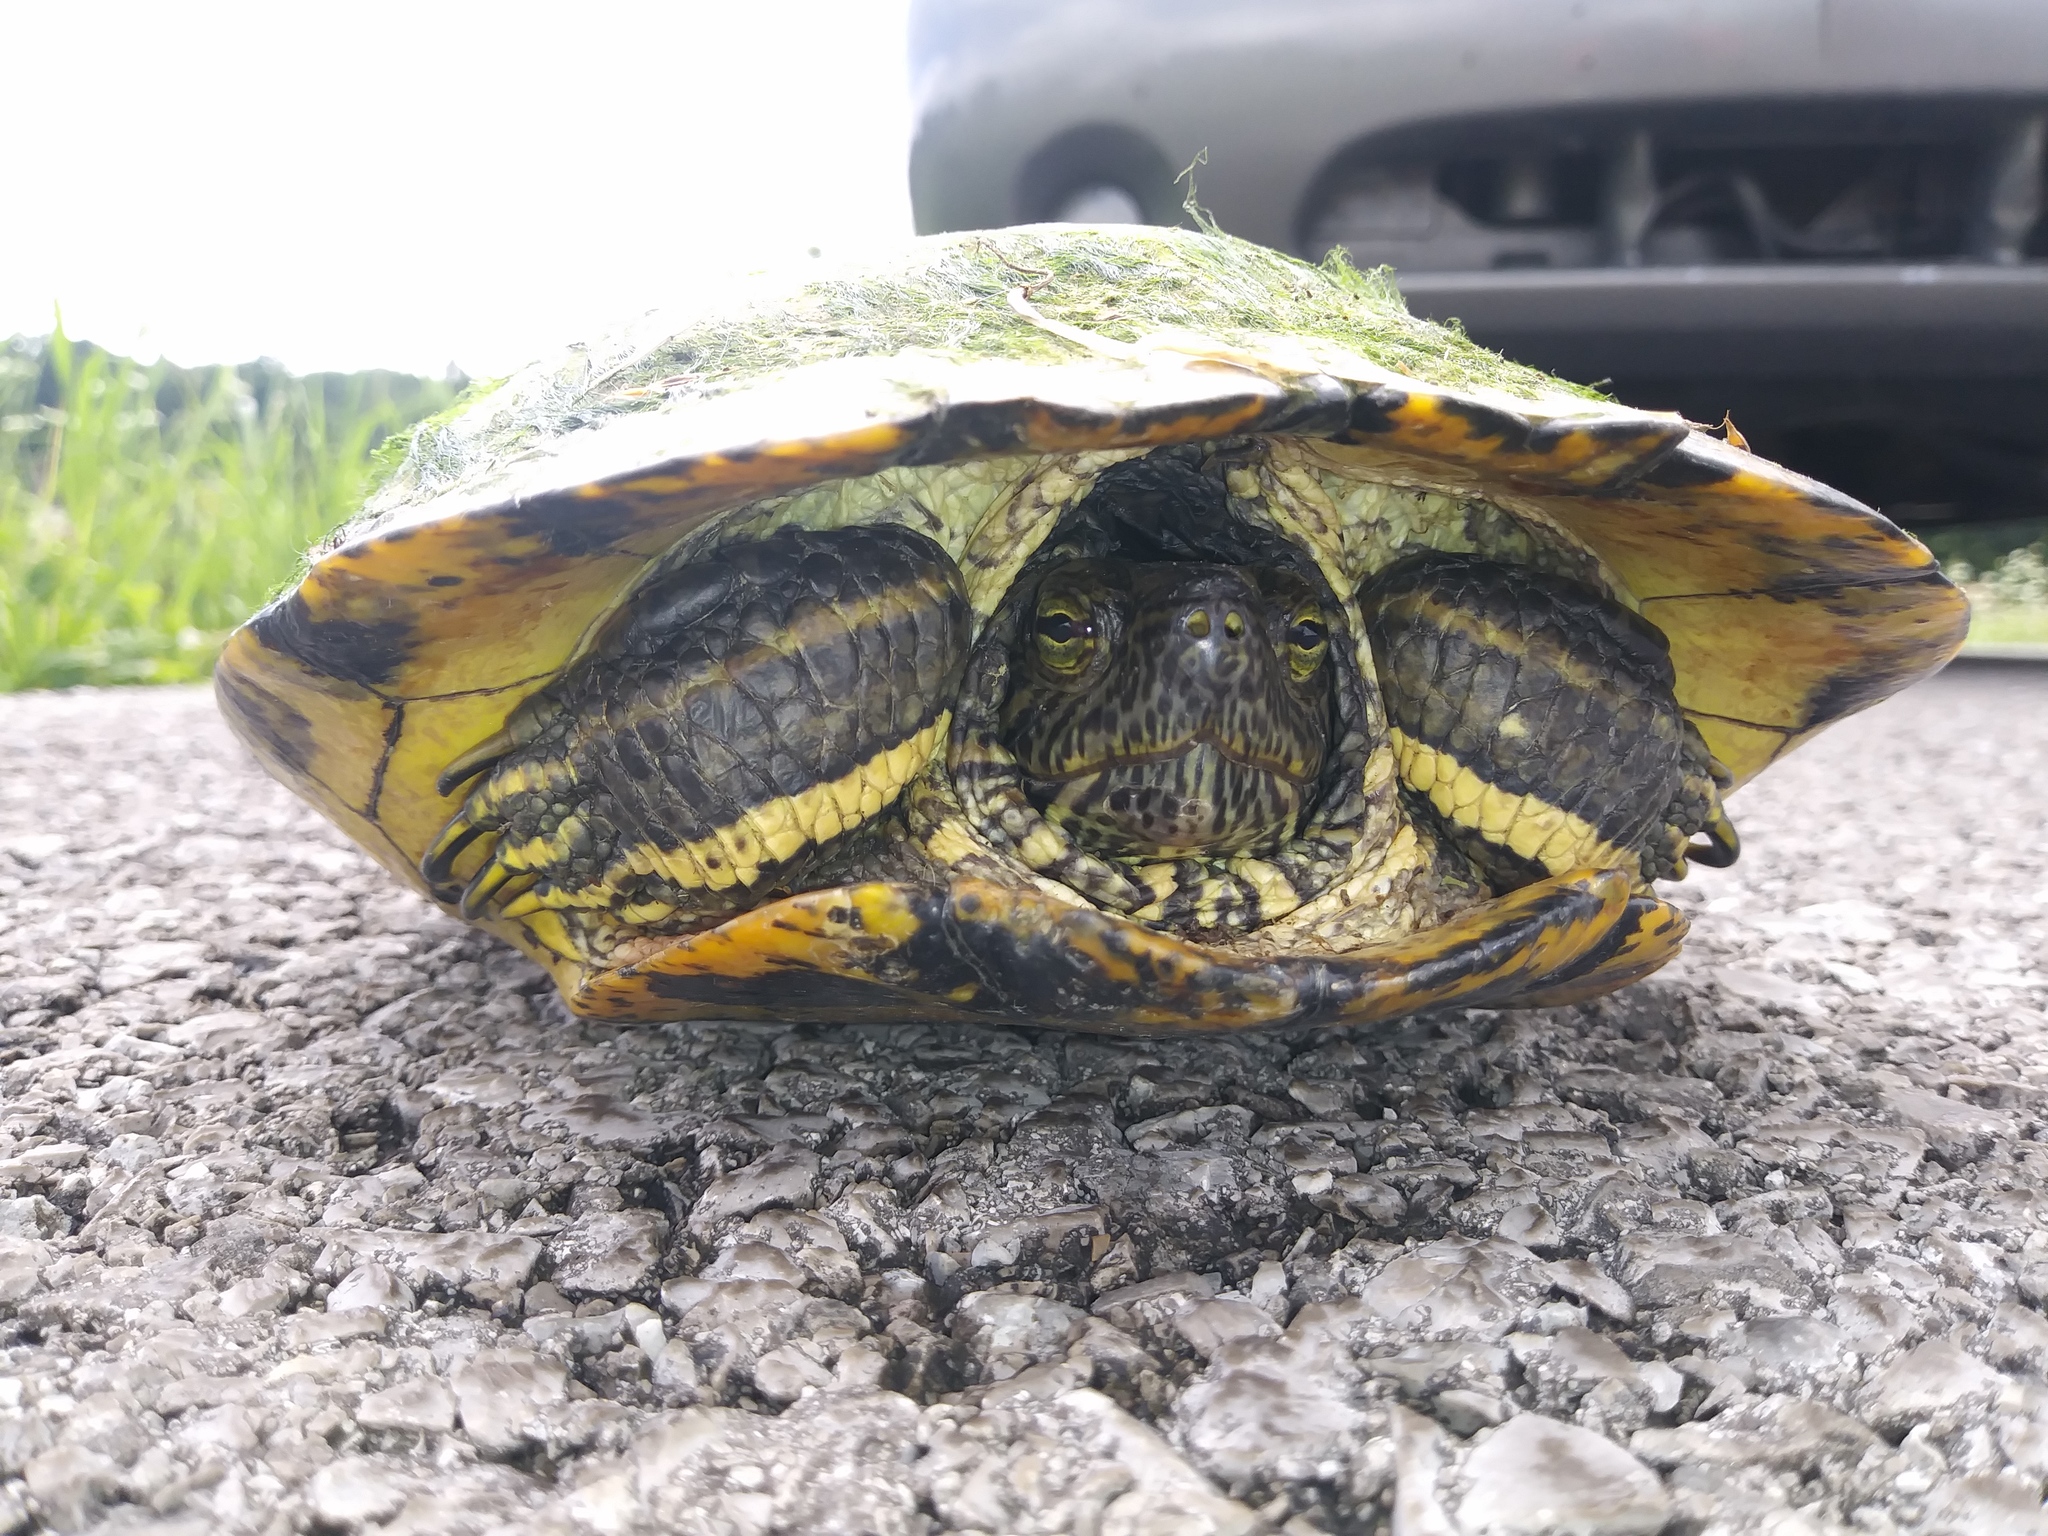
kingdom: Animalia
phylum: Chordata
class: Testudines
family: Emydidae
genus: Trachemys
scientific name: Trachemys scripta
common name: Slider
